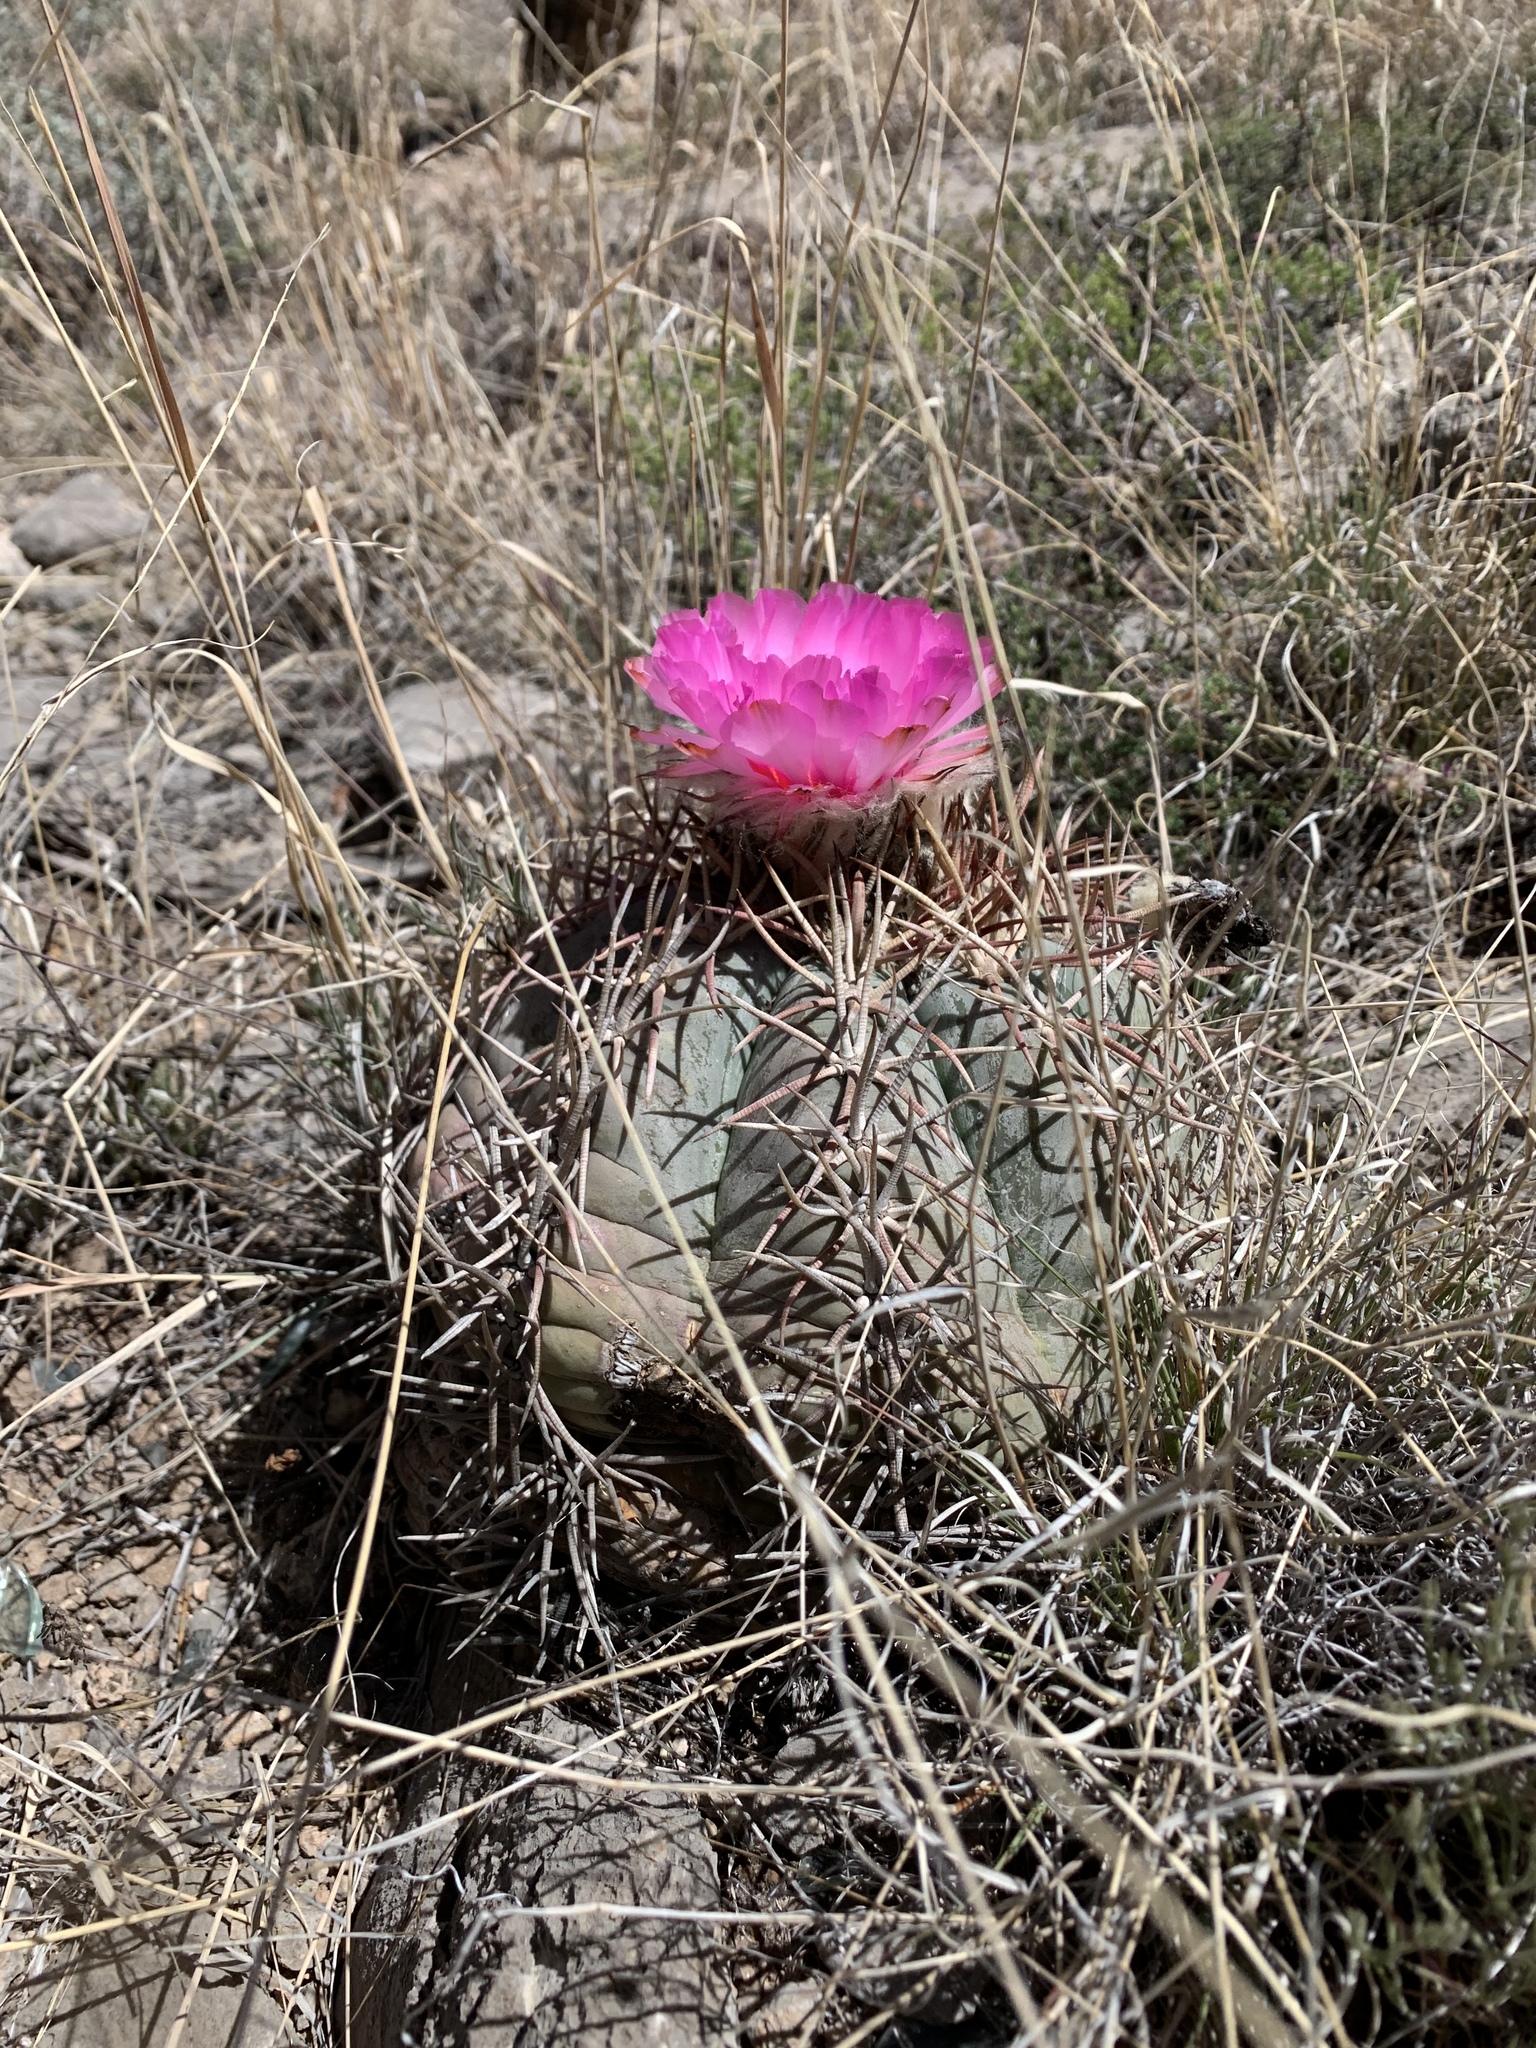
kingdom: Plantae
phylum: Tracheophyta
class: Magnoliopsida
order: Caryophyllales
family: Cactaceae
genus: Echinocactus
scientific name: Echinocactus horizonthalonius
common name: Devilshead
